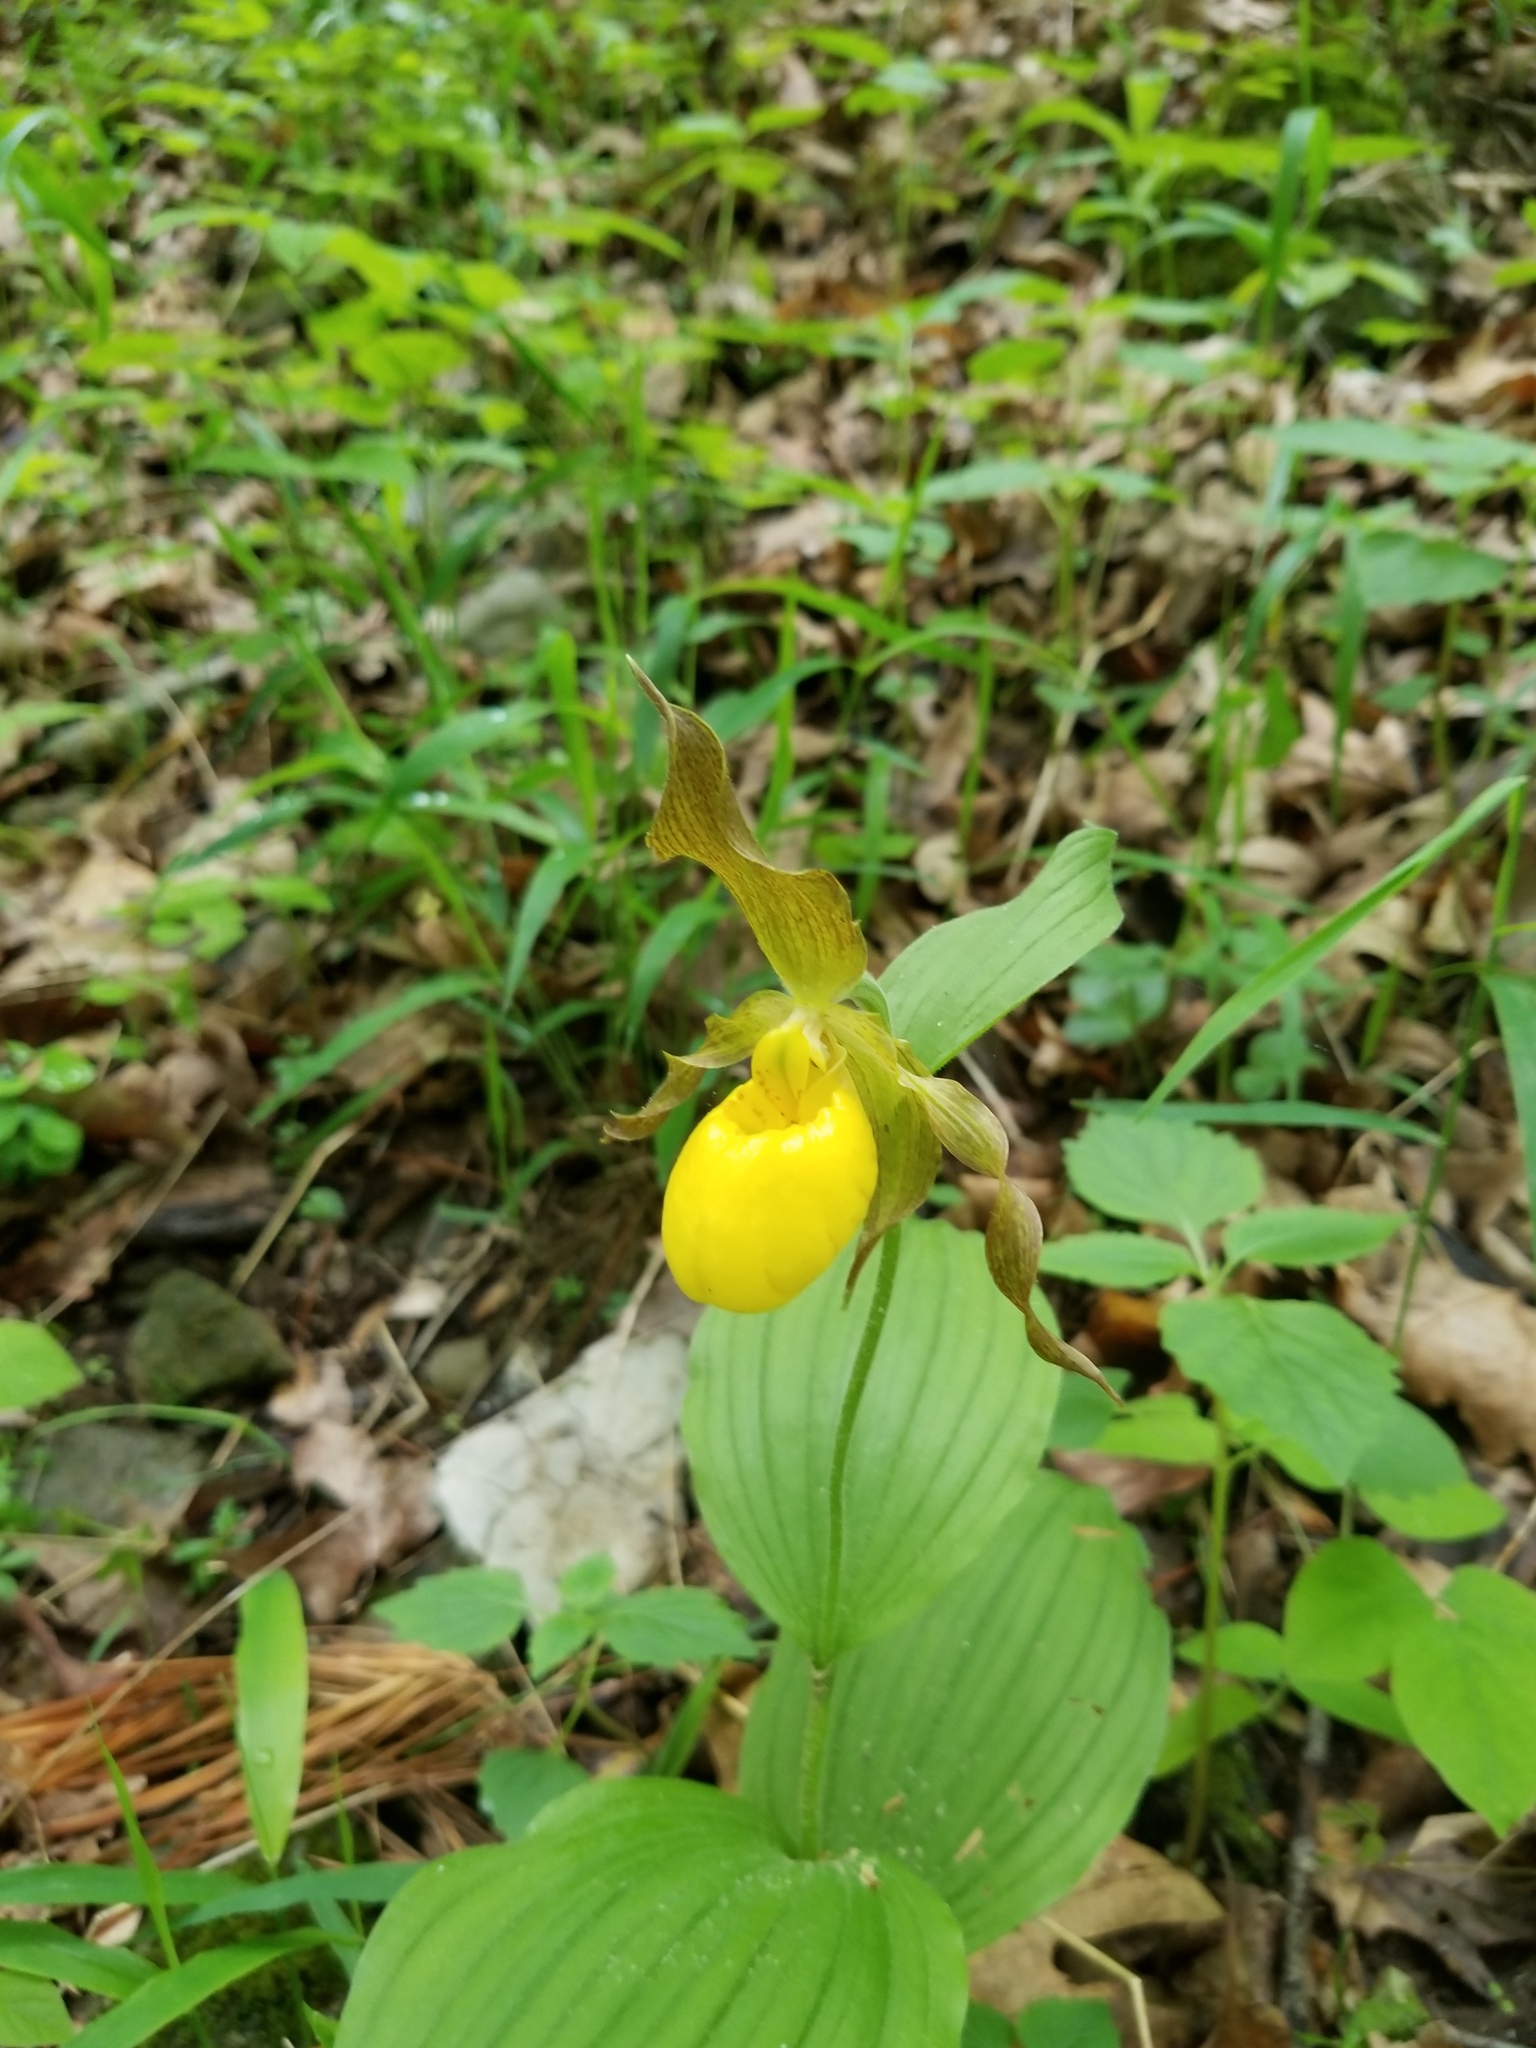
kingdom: Plantae
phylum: Tracheophyta
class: Liliopsida
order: Asparagales
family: Orchidaceae
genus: Cypripedium
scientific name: Cypripedium parviflorum
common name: American yellow lady's-slipper
